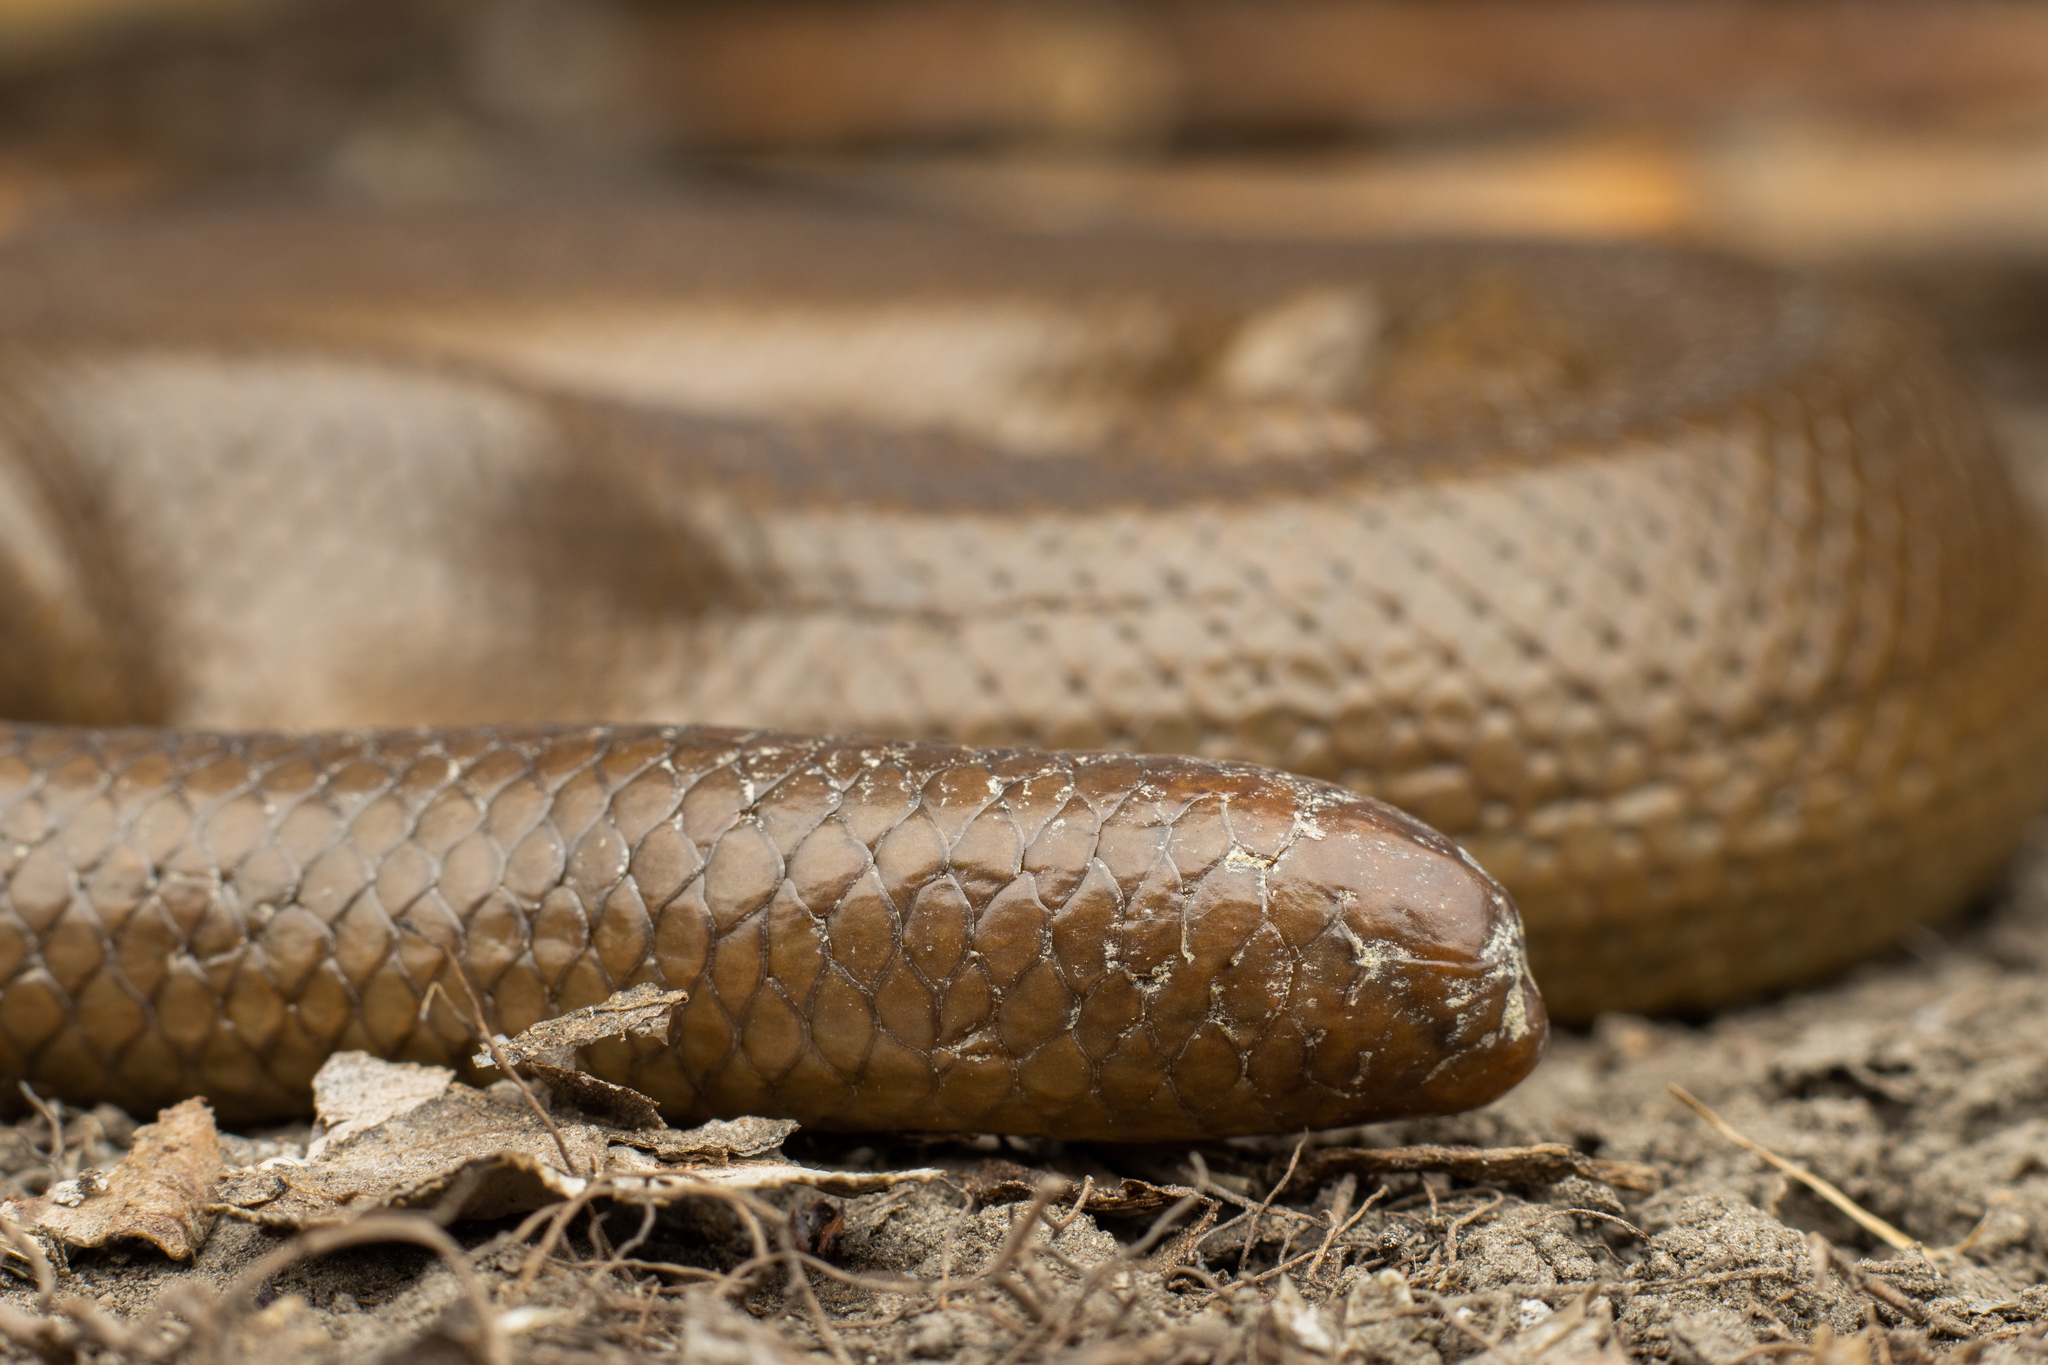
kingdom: Animalia
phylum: Chordata
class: Squamata
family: Boidae
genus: Charina
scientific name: Charina bottae
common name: Northern rubber boa
